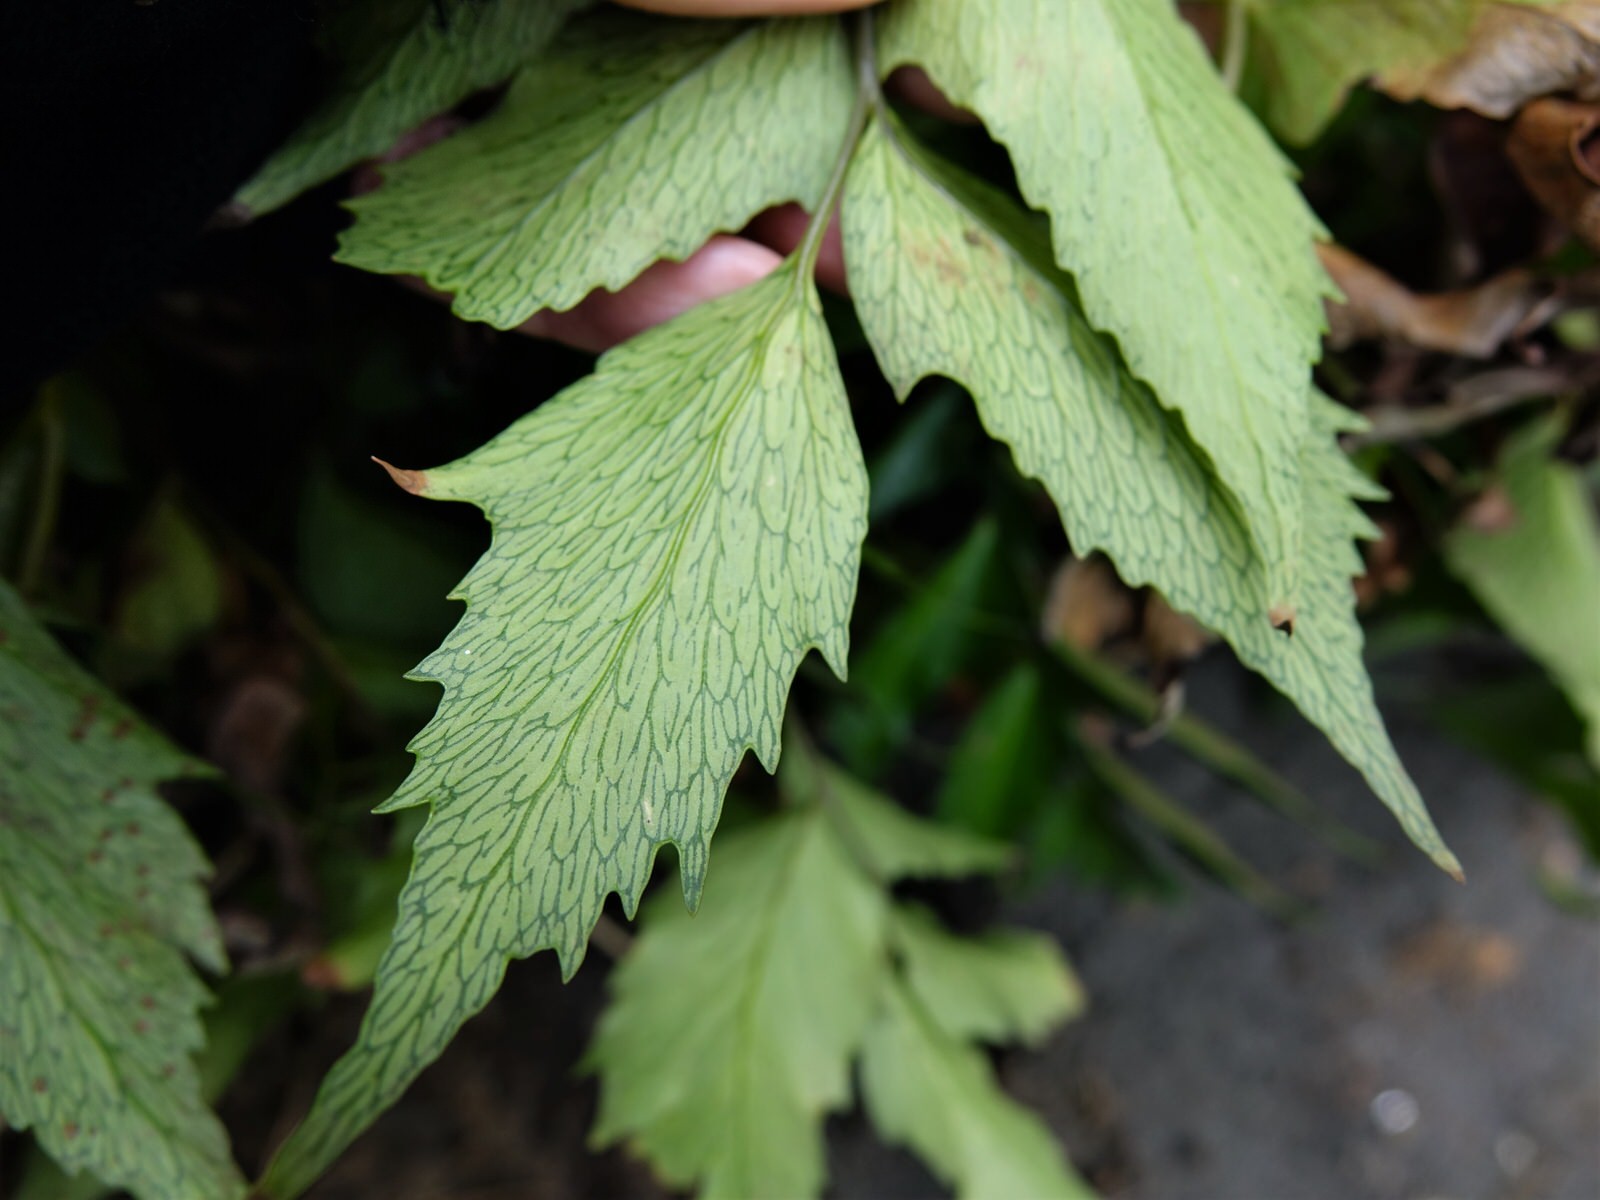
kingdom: Plantae
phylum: Tracheophyta
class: Polypodiopsida
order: Polypodiales
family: Dryopteridaceae
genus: Cyrtomium
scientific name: Cyrtomium falcatum
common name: House holly-fern
